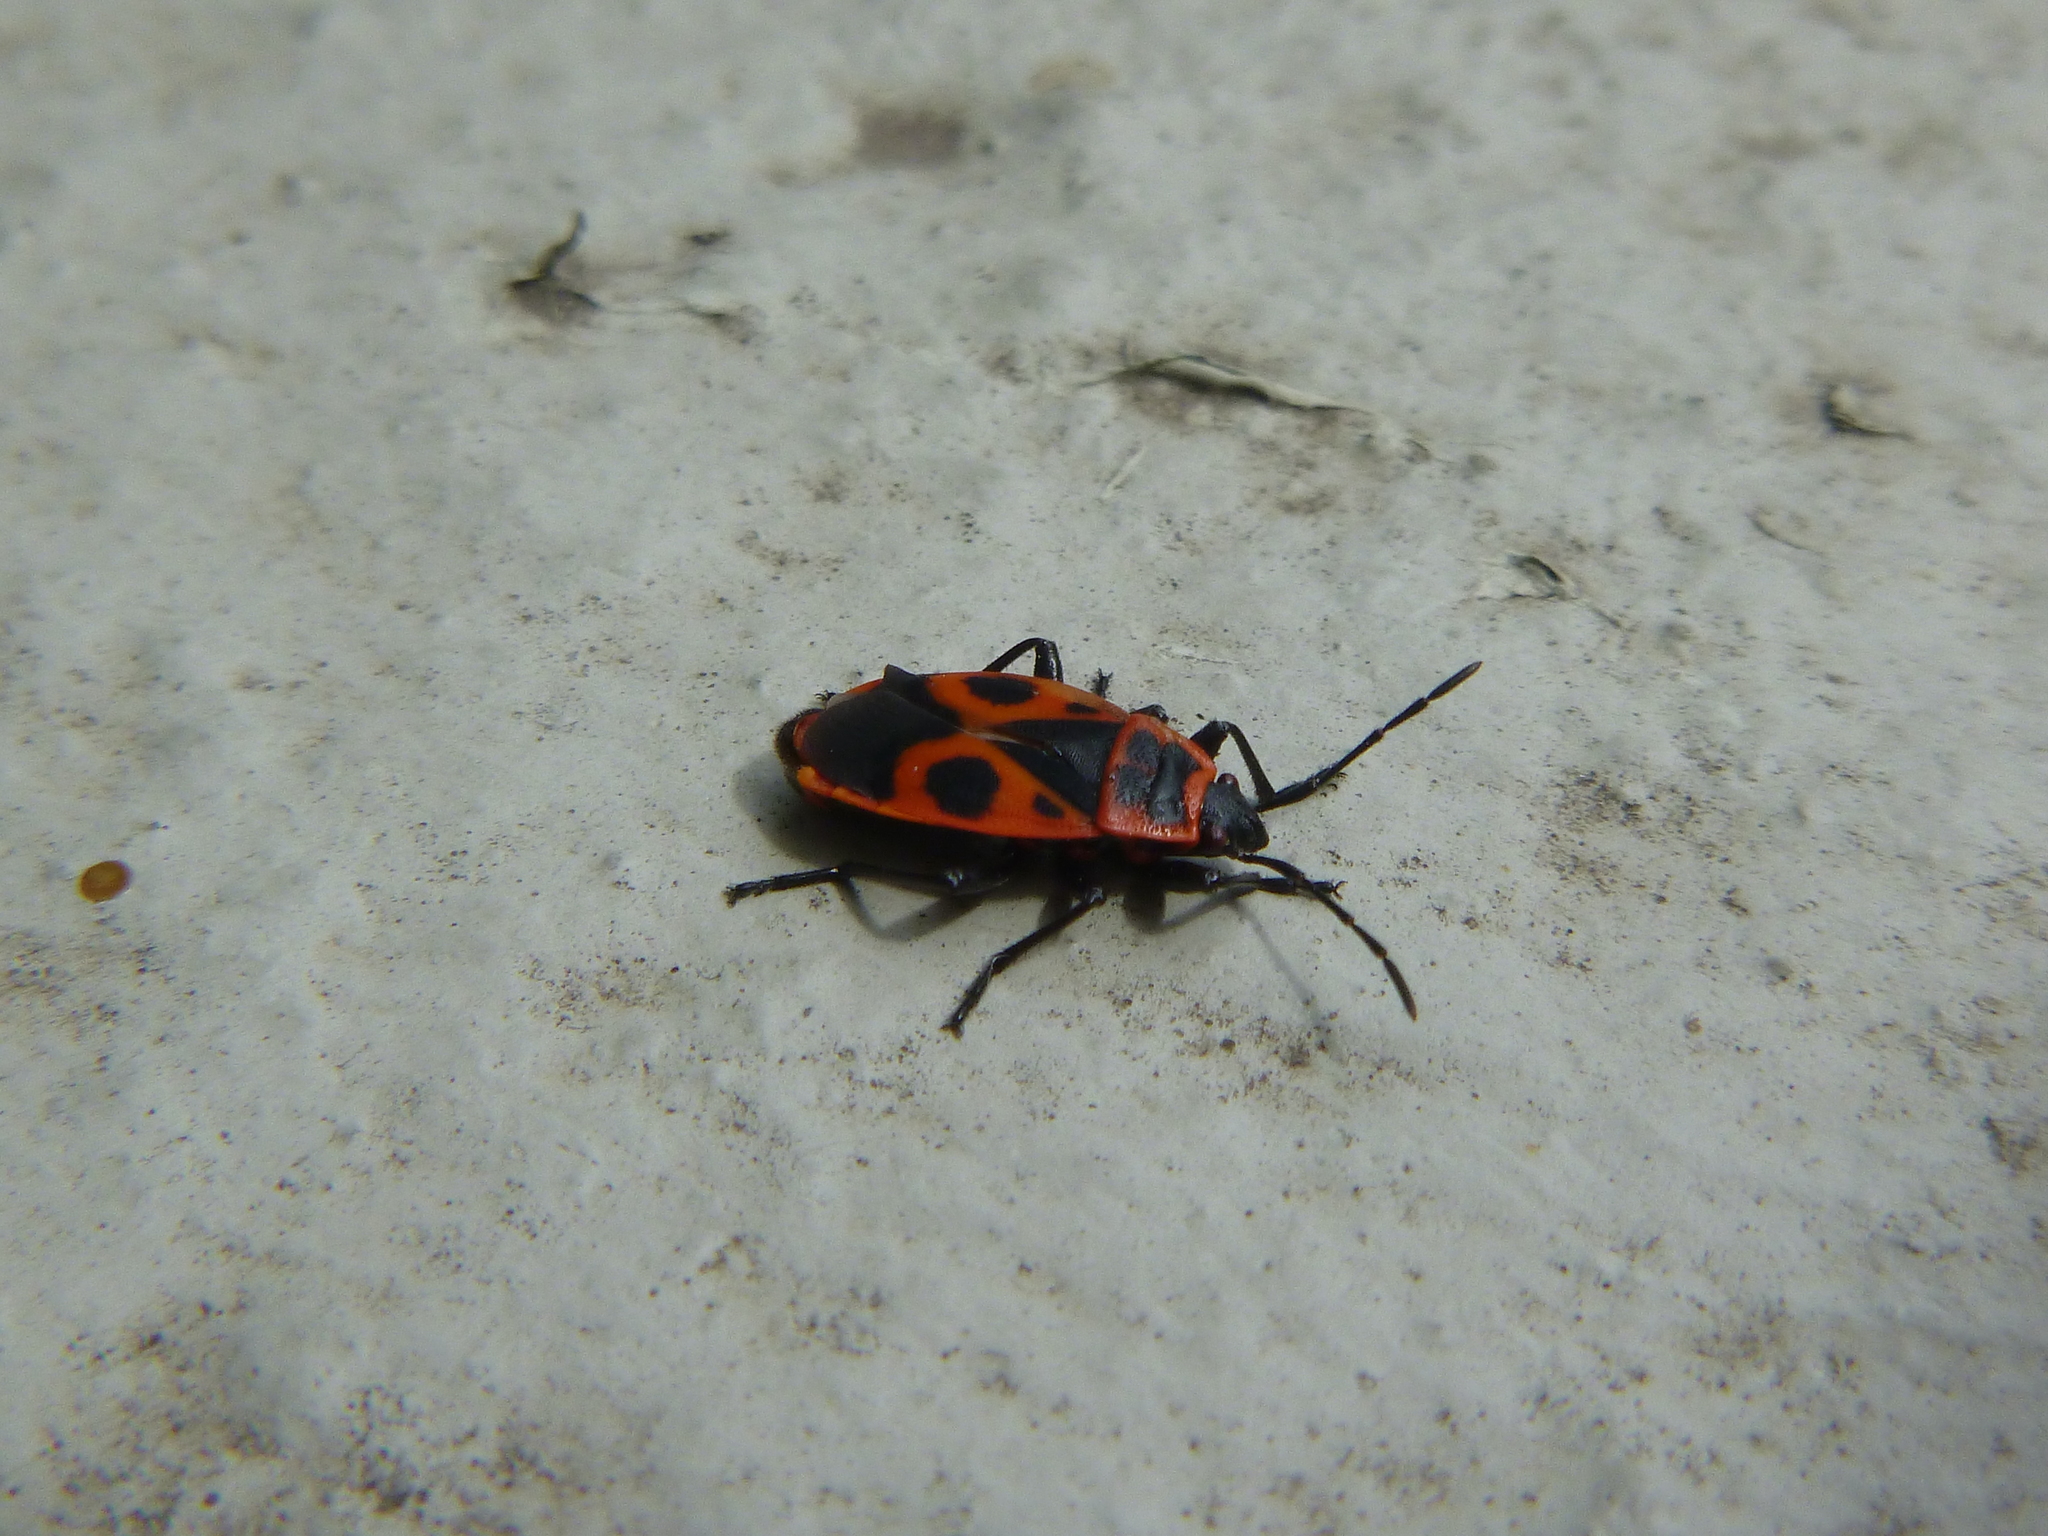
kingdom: Animalia
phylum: Arthropoda
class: Insecta
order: Hemiptera
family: Pyrrhocoridae
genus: Pyrrhocoris
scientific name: Pyrrhocoris apterus
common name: Firebug
